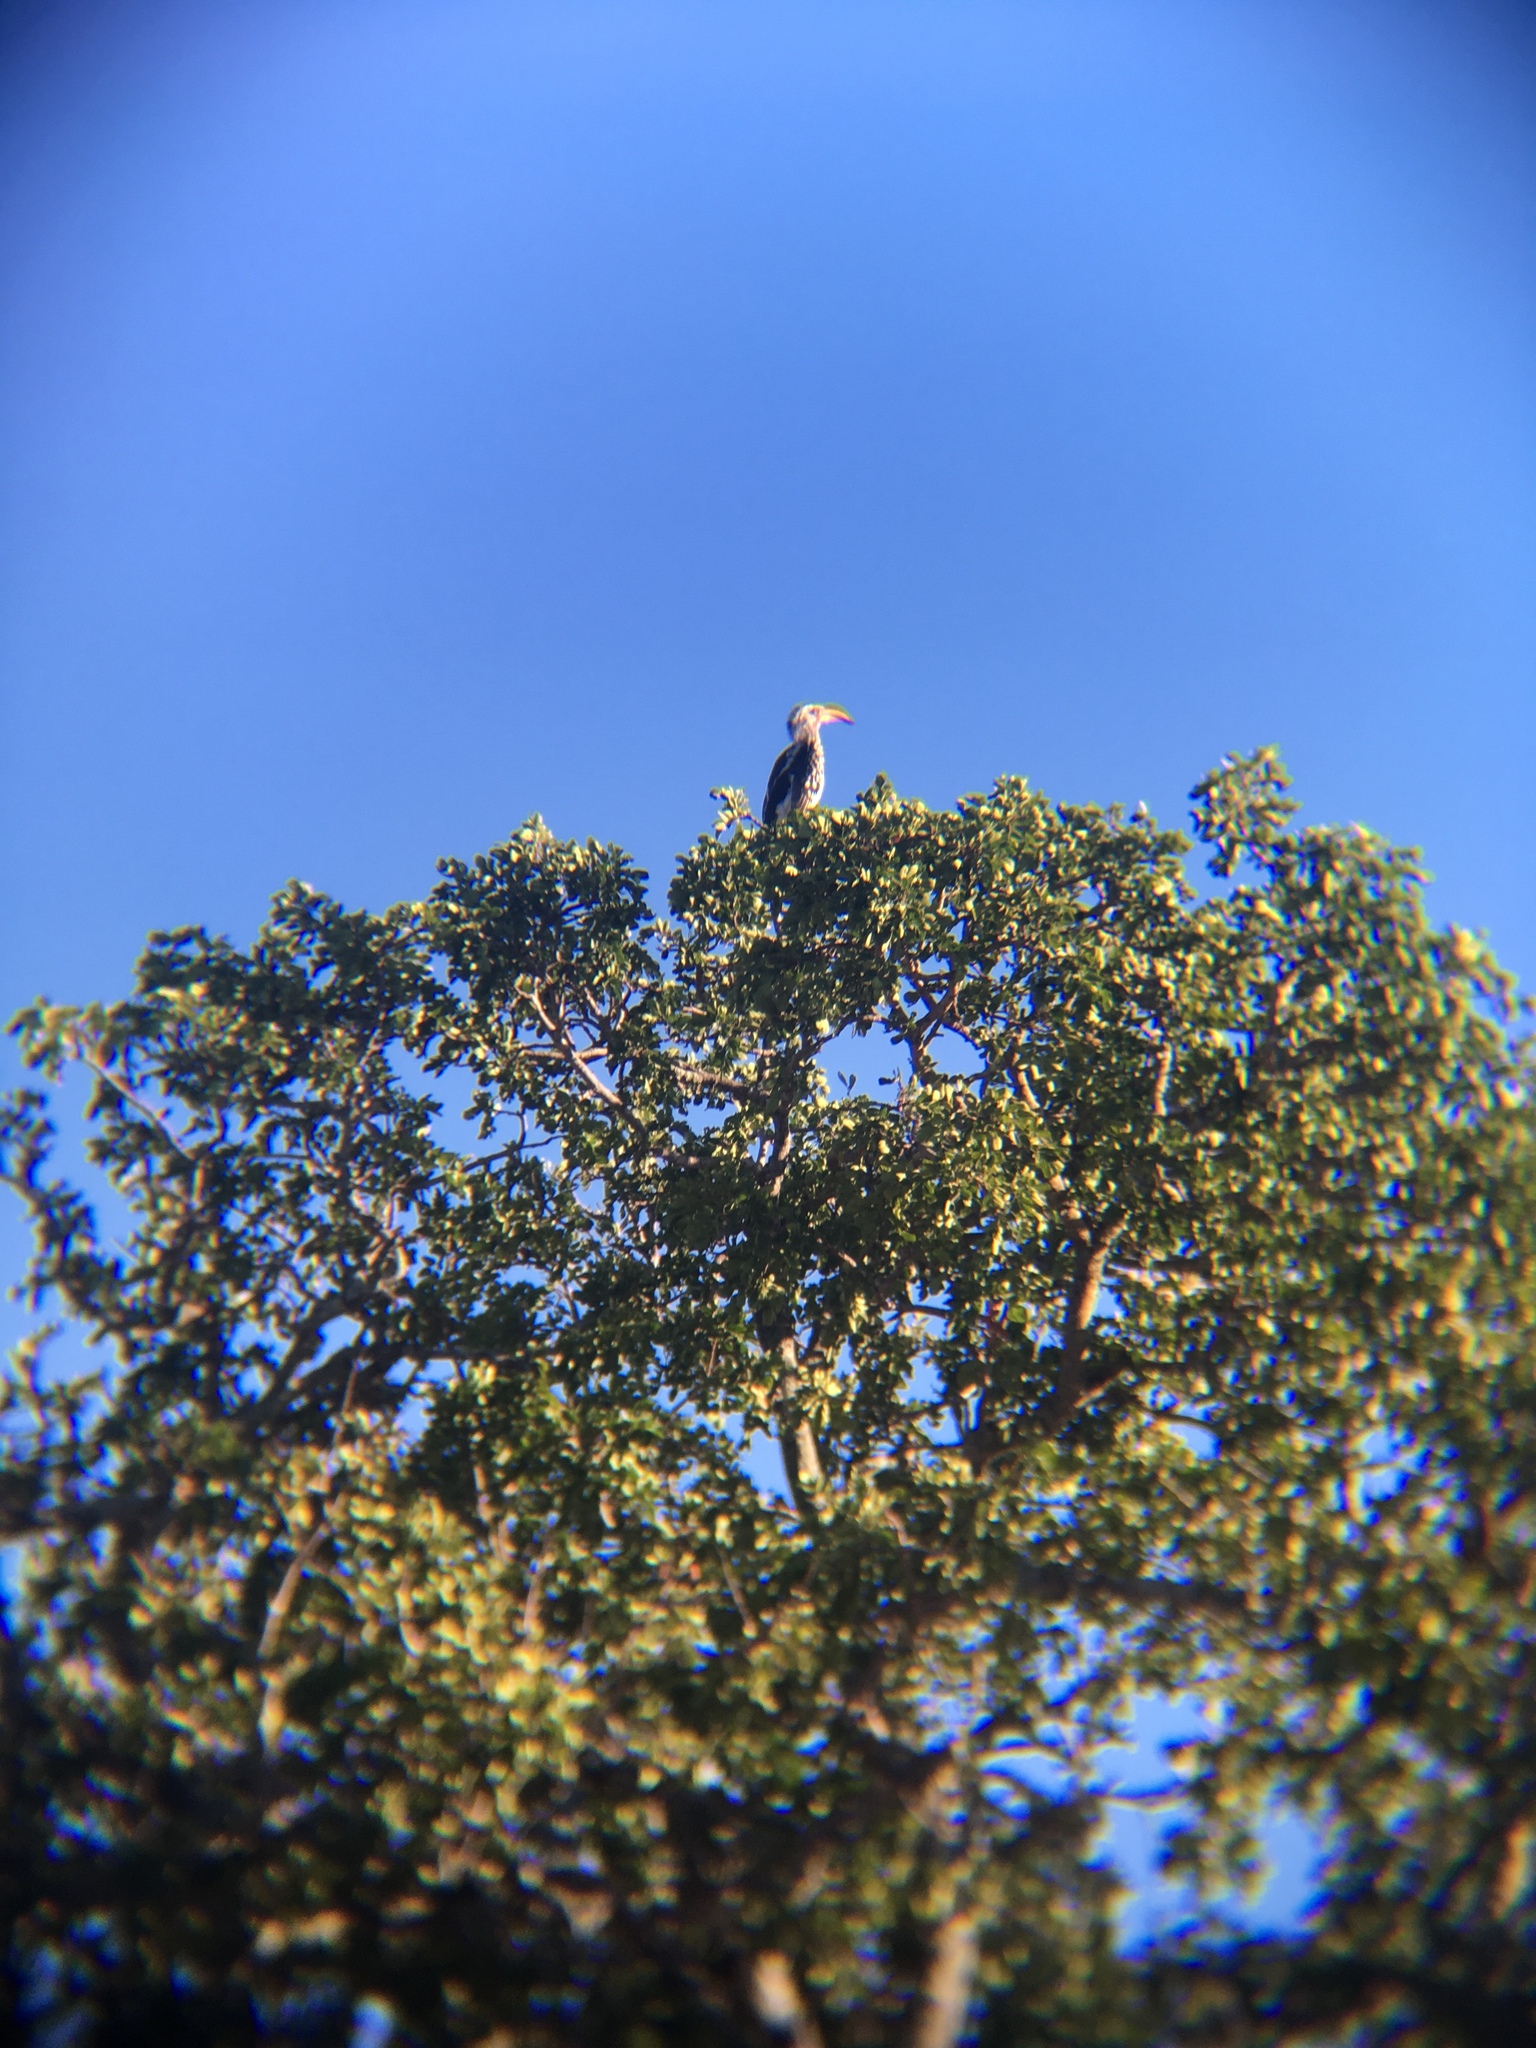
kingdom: Animalia
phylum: Chordata
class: Aves
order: Bucerotiformes
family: Bucerotidae
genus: Tockus
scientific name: Tockus leucomelas
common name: Southern yellow-billed hornbill
